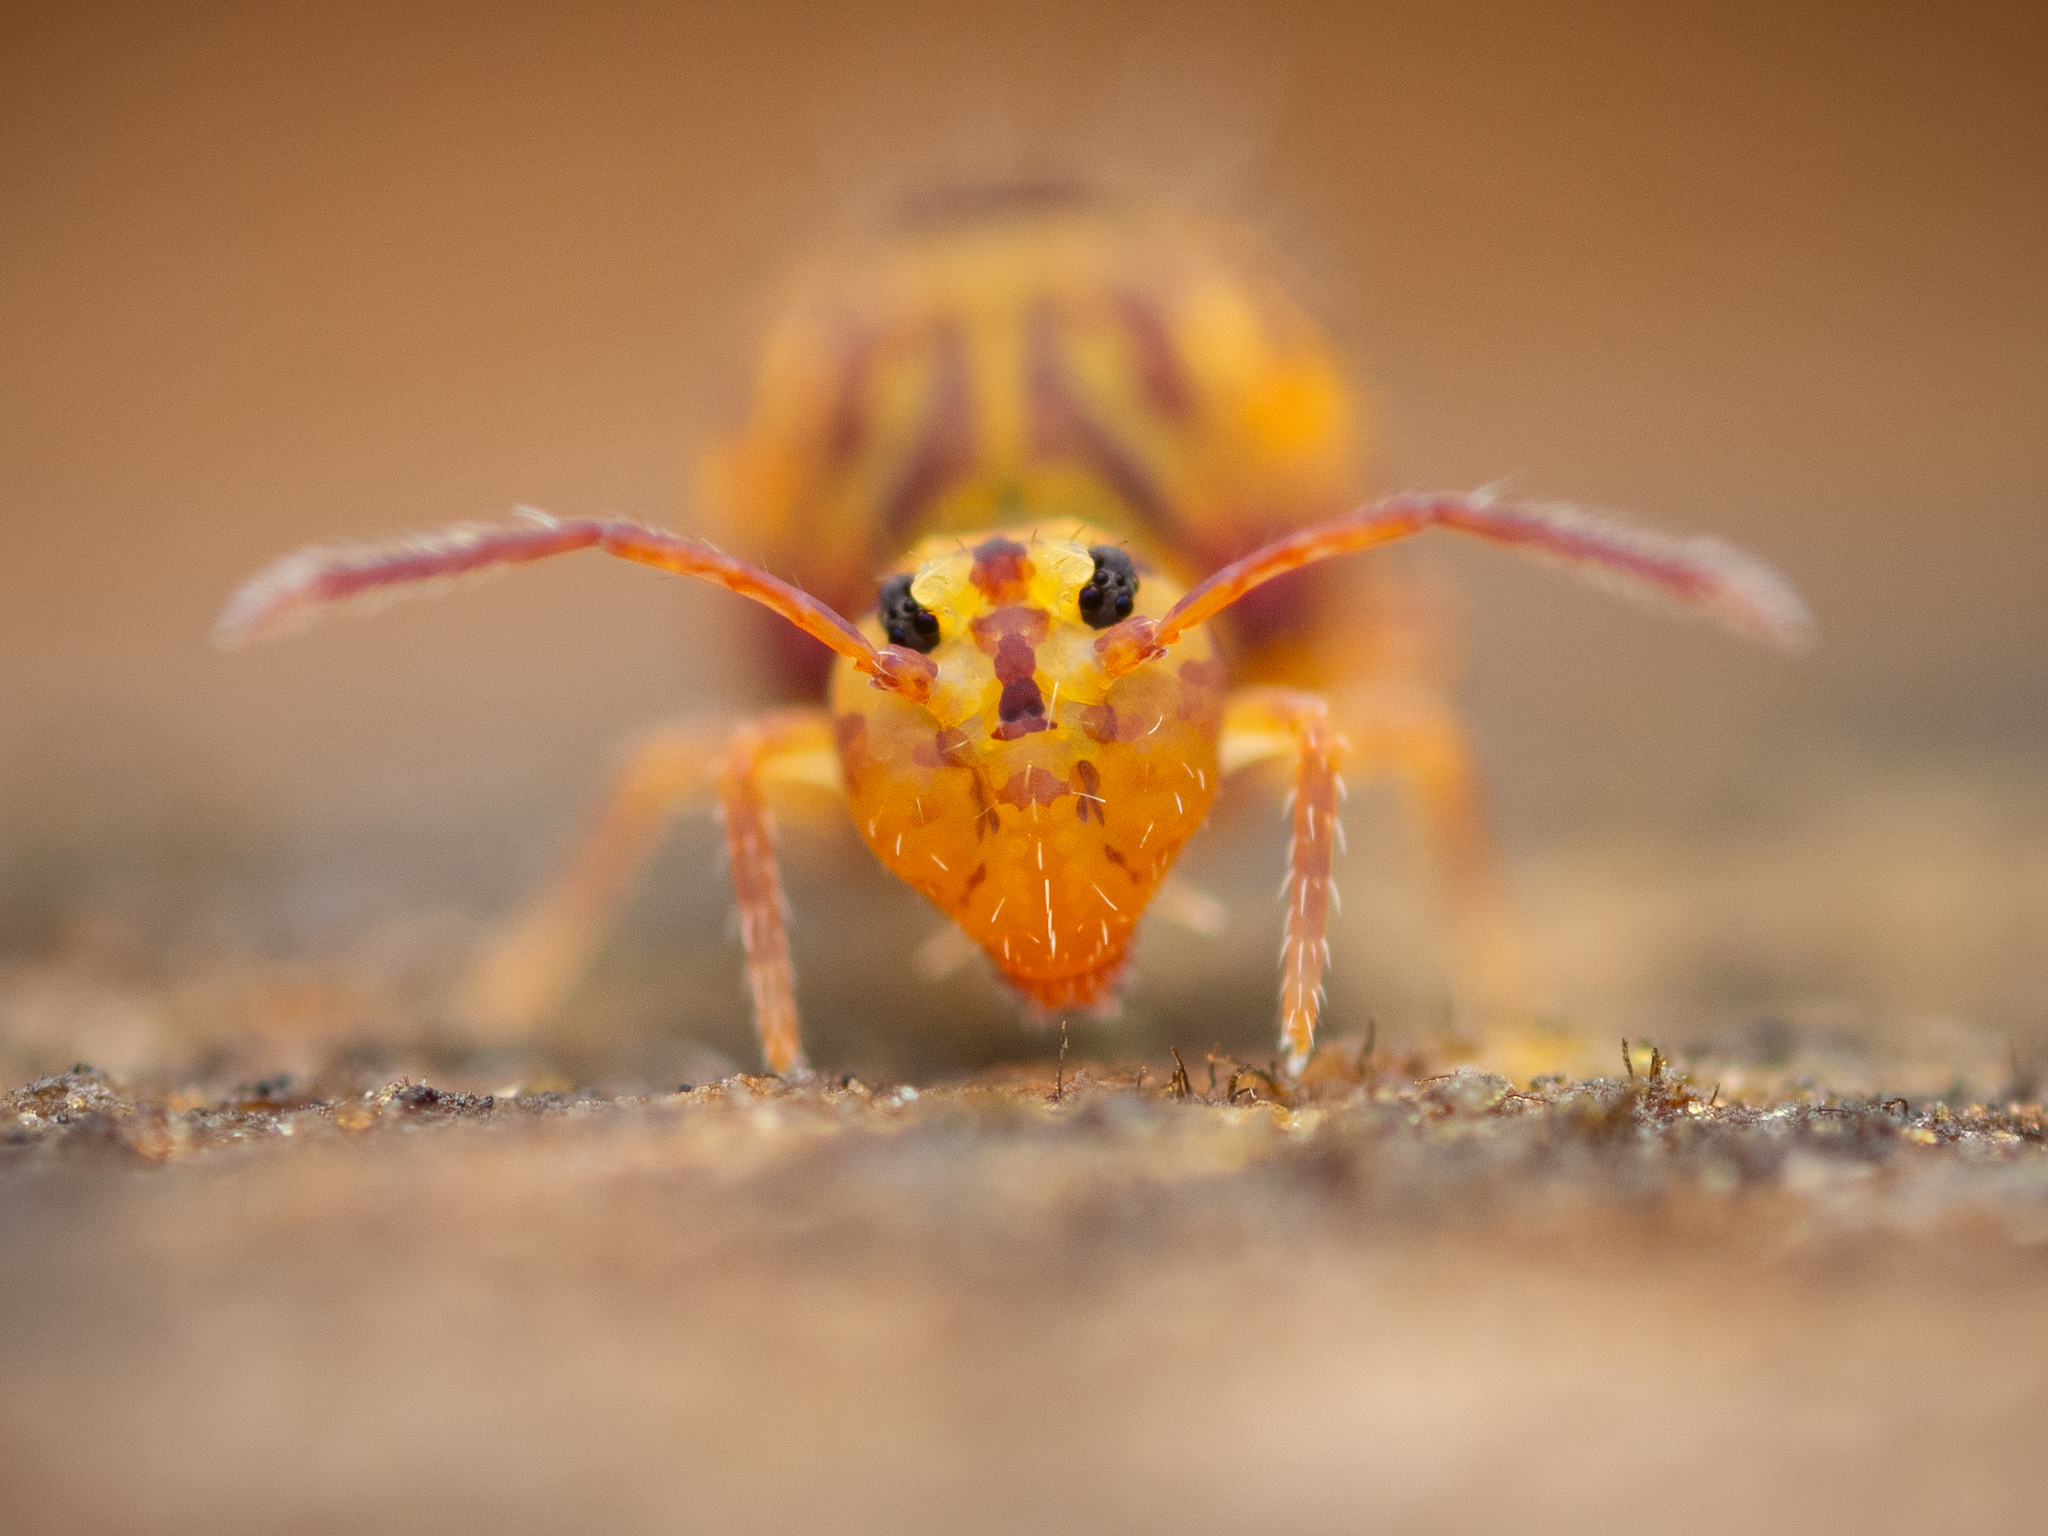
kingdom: Animalia
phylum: Arthropoda
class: Collembola
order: Symphypleona
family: Dicyrtomidae
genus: Dicyrtomina
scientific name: Dicyrtomina ornata
